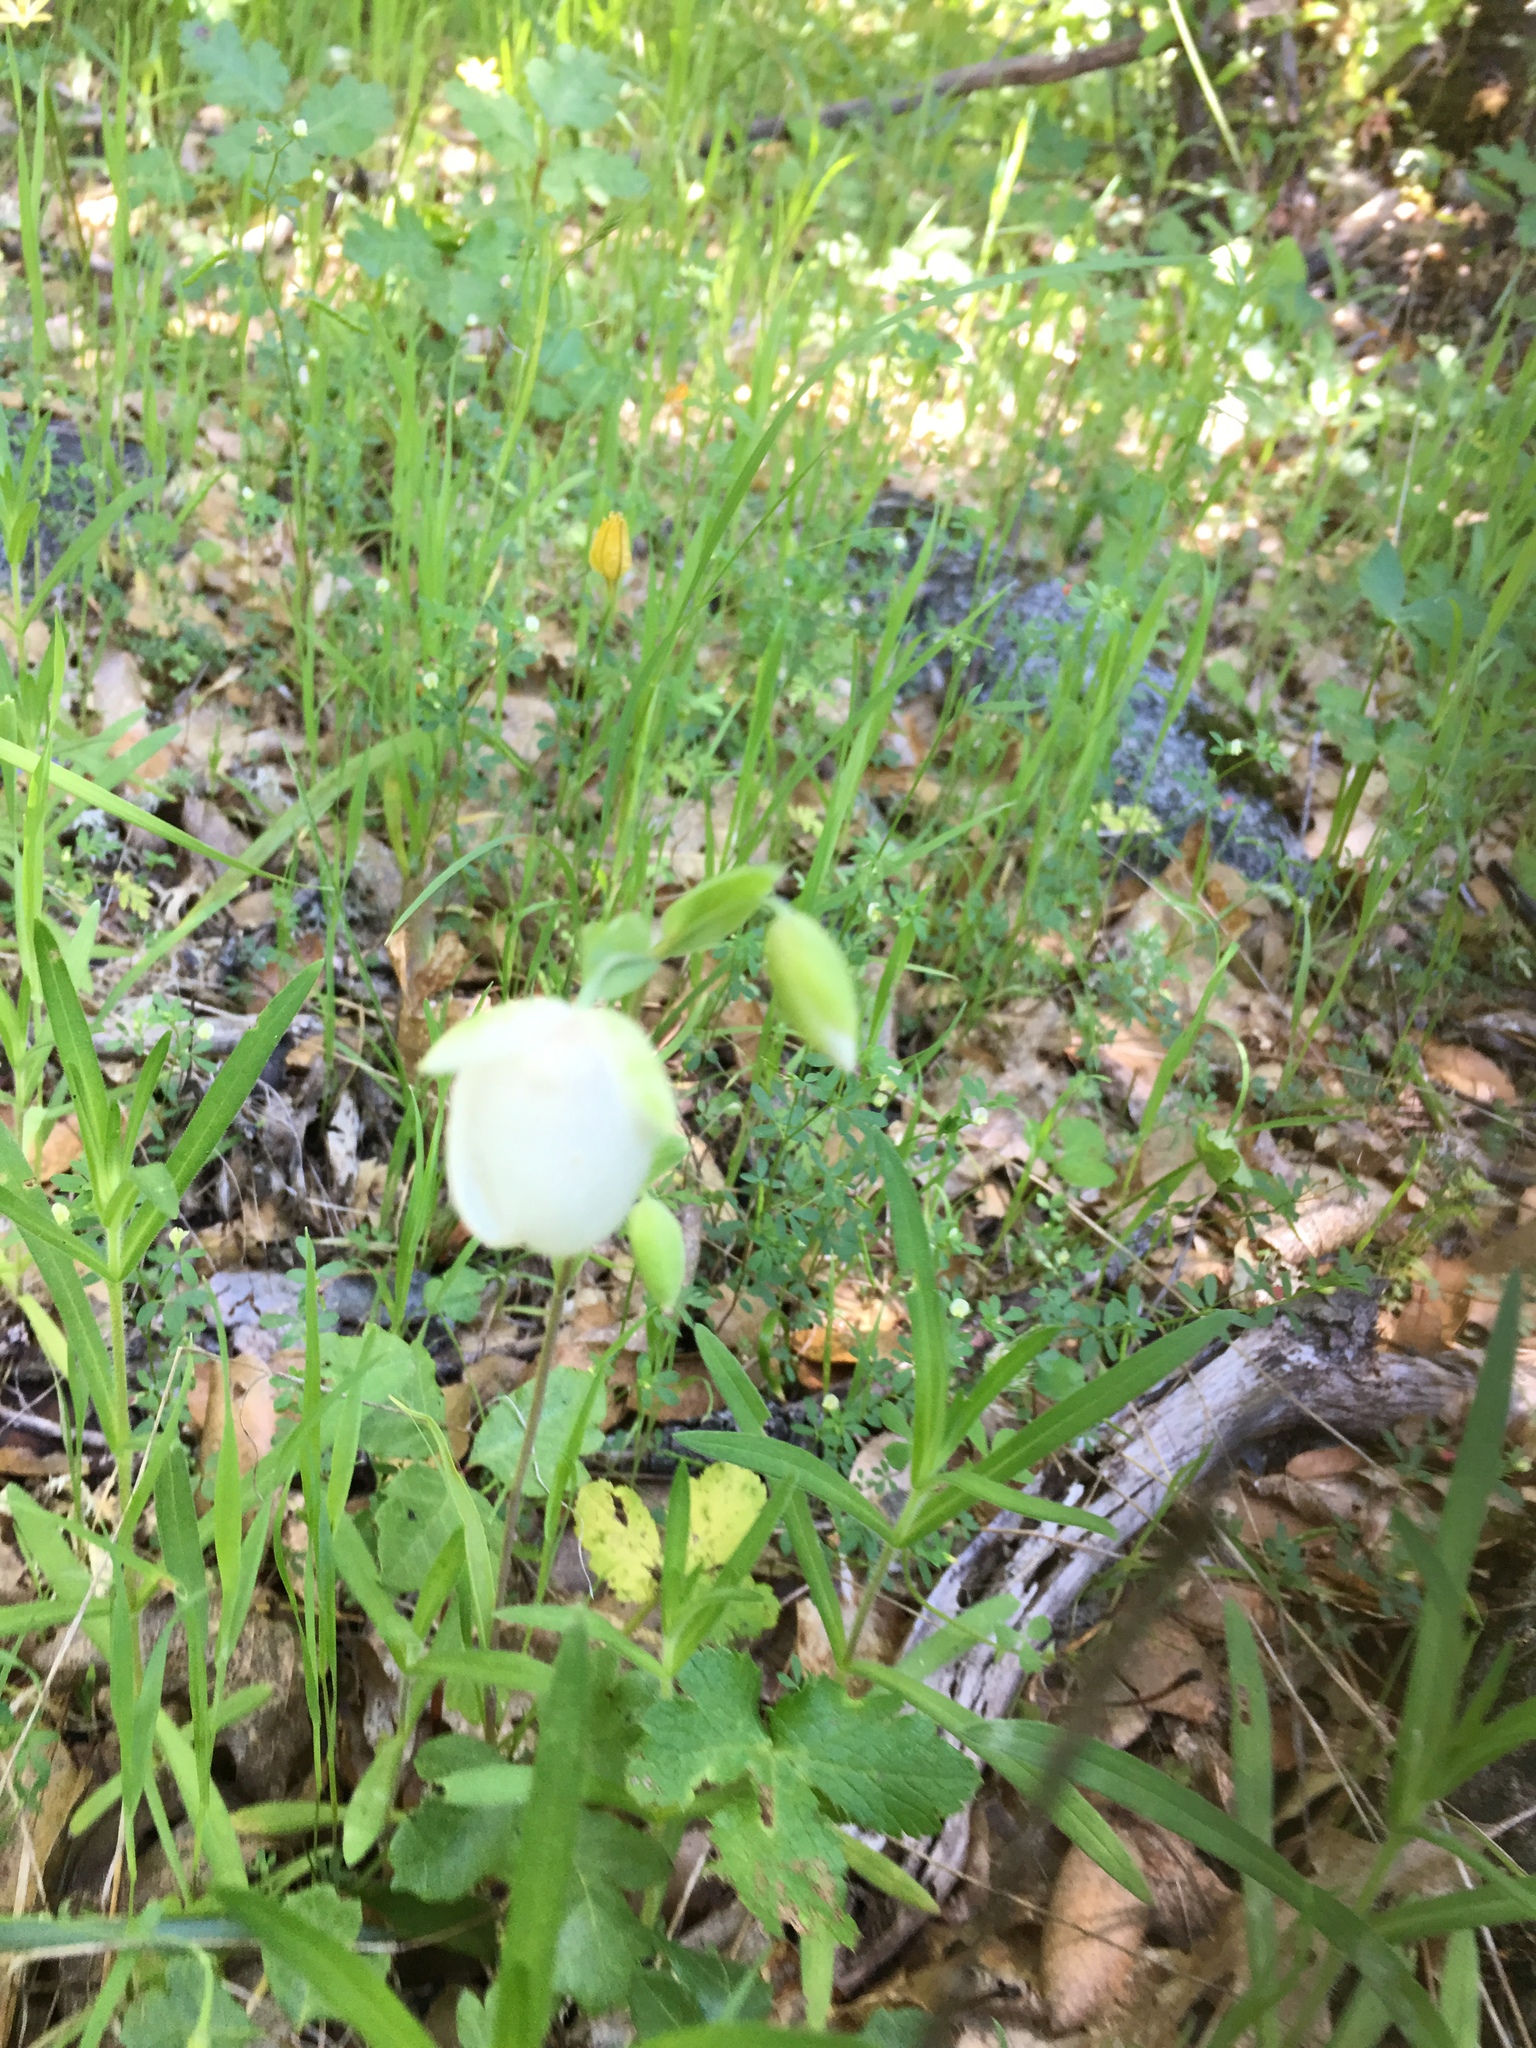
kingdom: Plantae
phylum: Tracheophyta
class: Liliopsida
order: Liliales
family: Liliaceae
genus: Calochortus
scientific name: Calochortus albus
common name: Fairy-lantern
